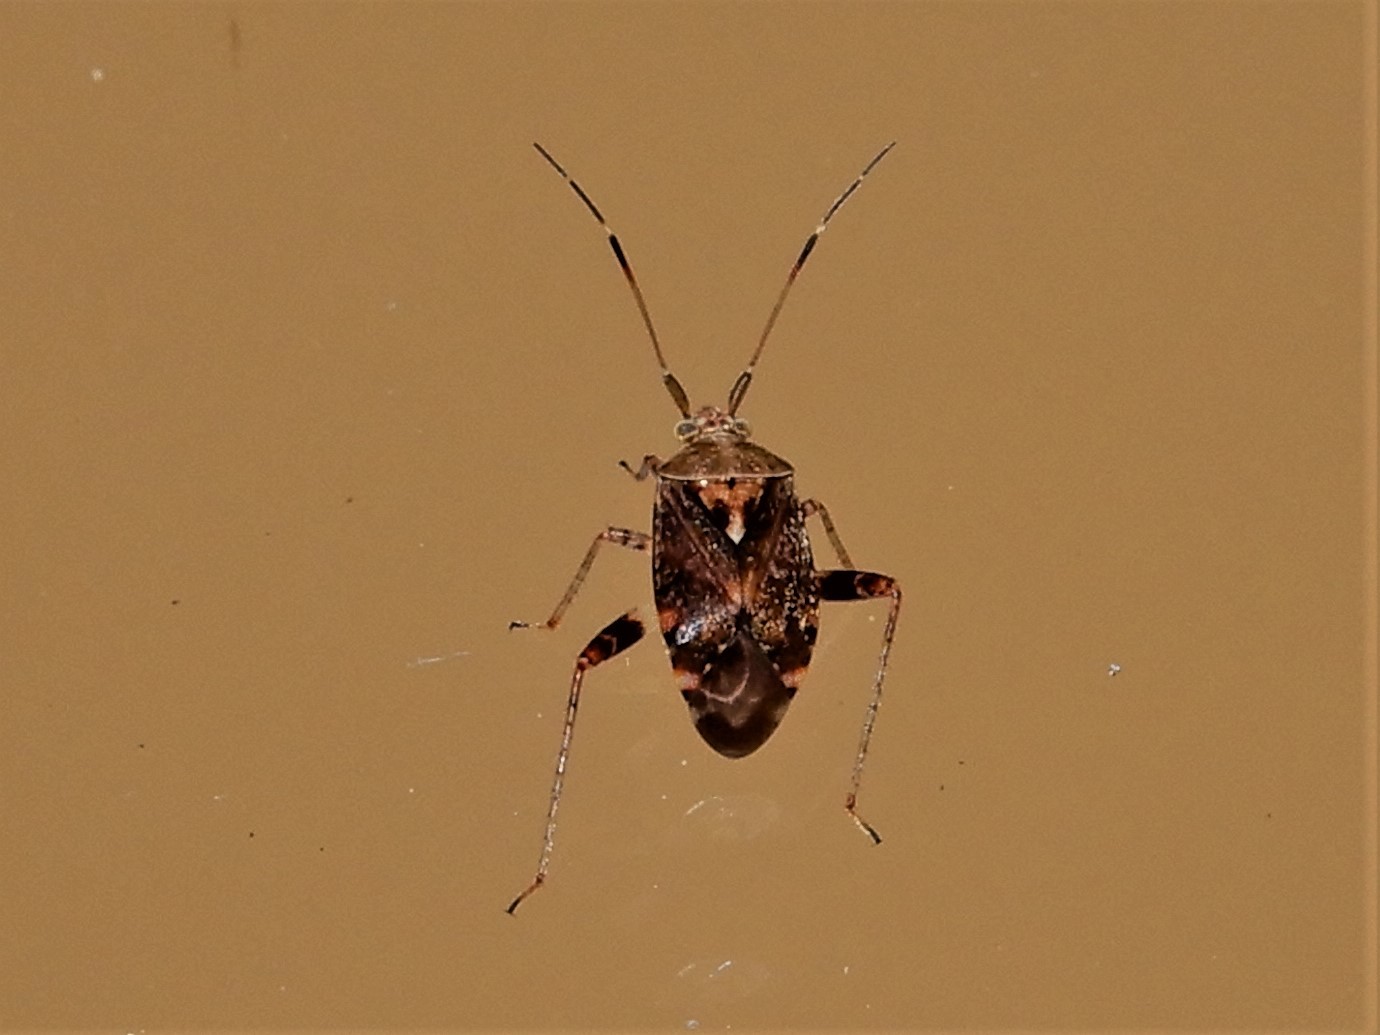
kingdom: Animalia
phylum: Arthropoda
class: Insecta
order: Hemiptera
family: Miridae
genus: Sidnia
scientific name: Sidnia kinbergi
